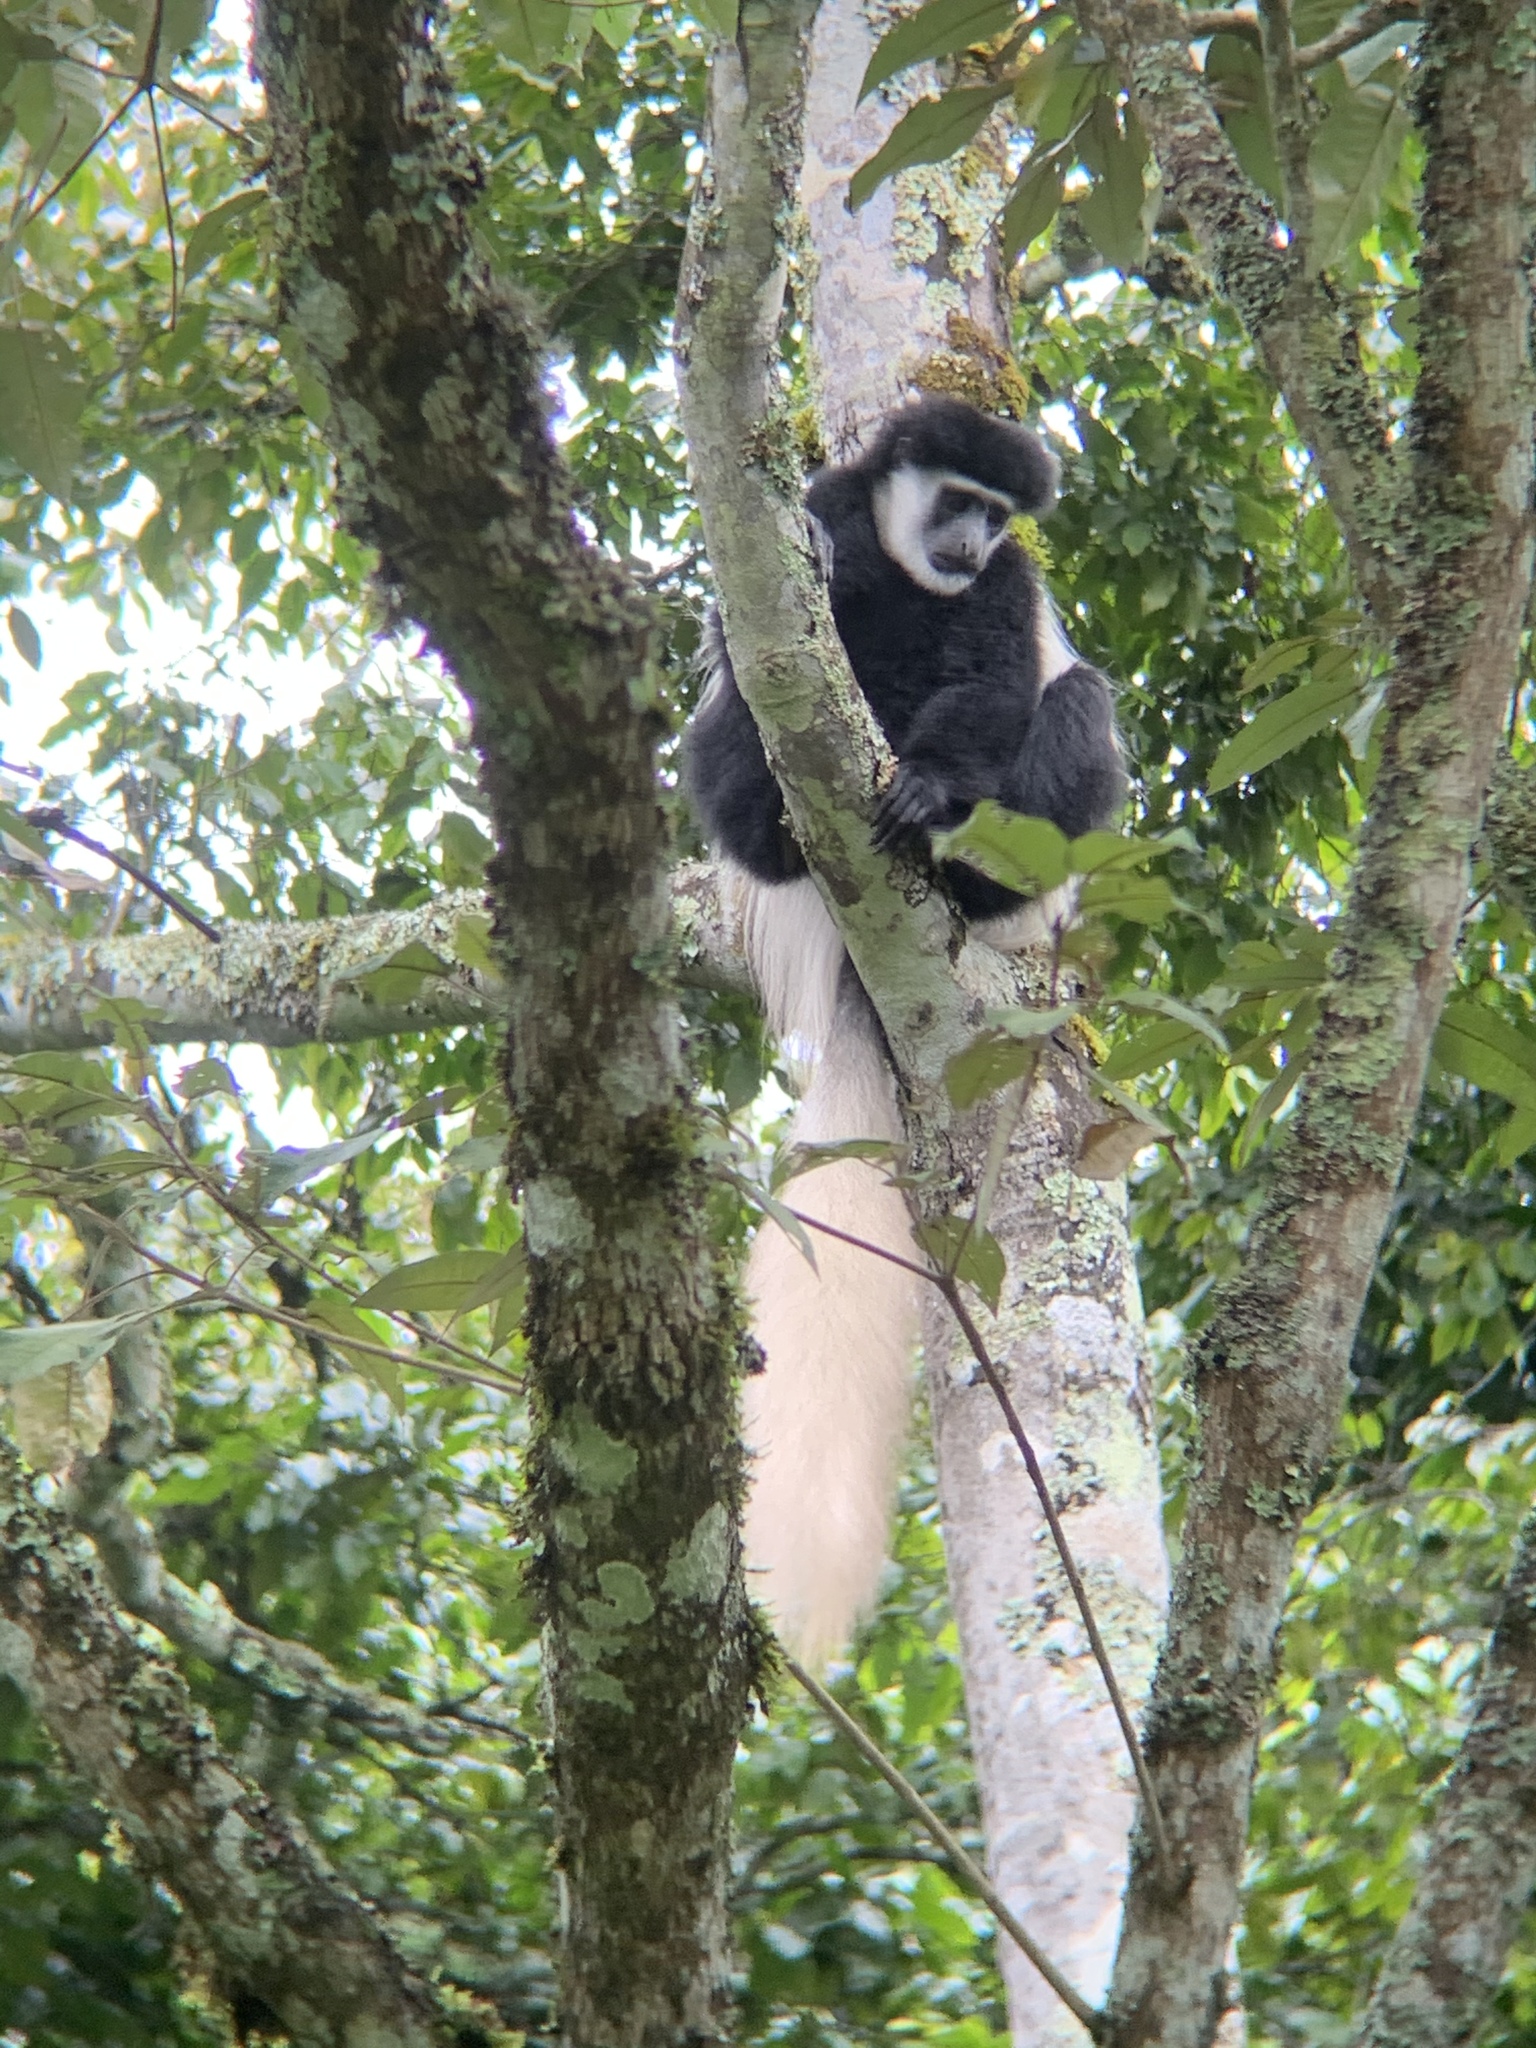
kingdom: Animalia
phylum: Chordata
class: Mammalia
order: Primates
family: Cercopithecidae
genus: Colobus
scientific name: Colobus caudatus
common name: Mount kilimanjaro guereza
